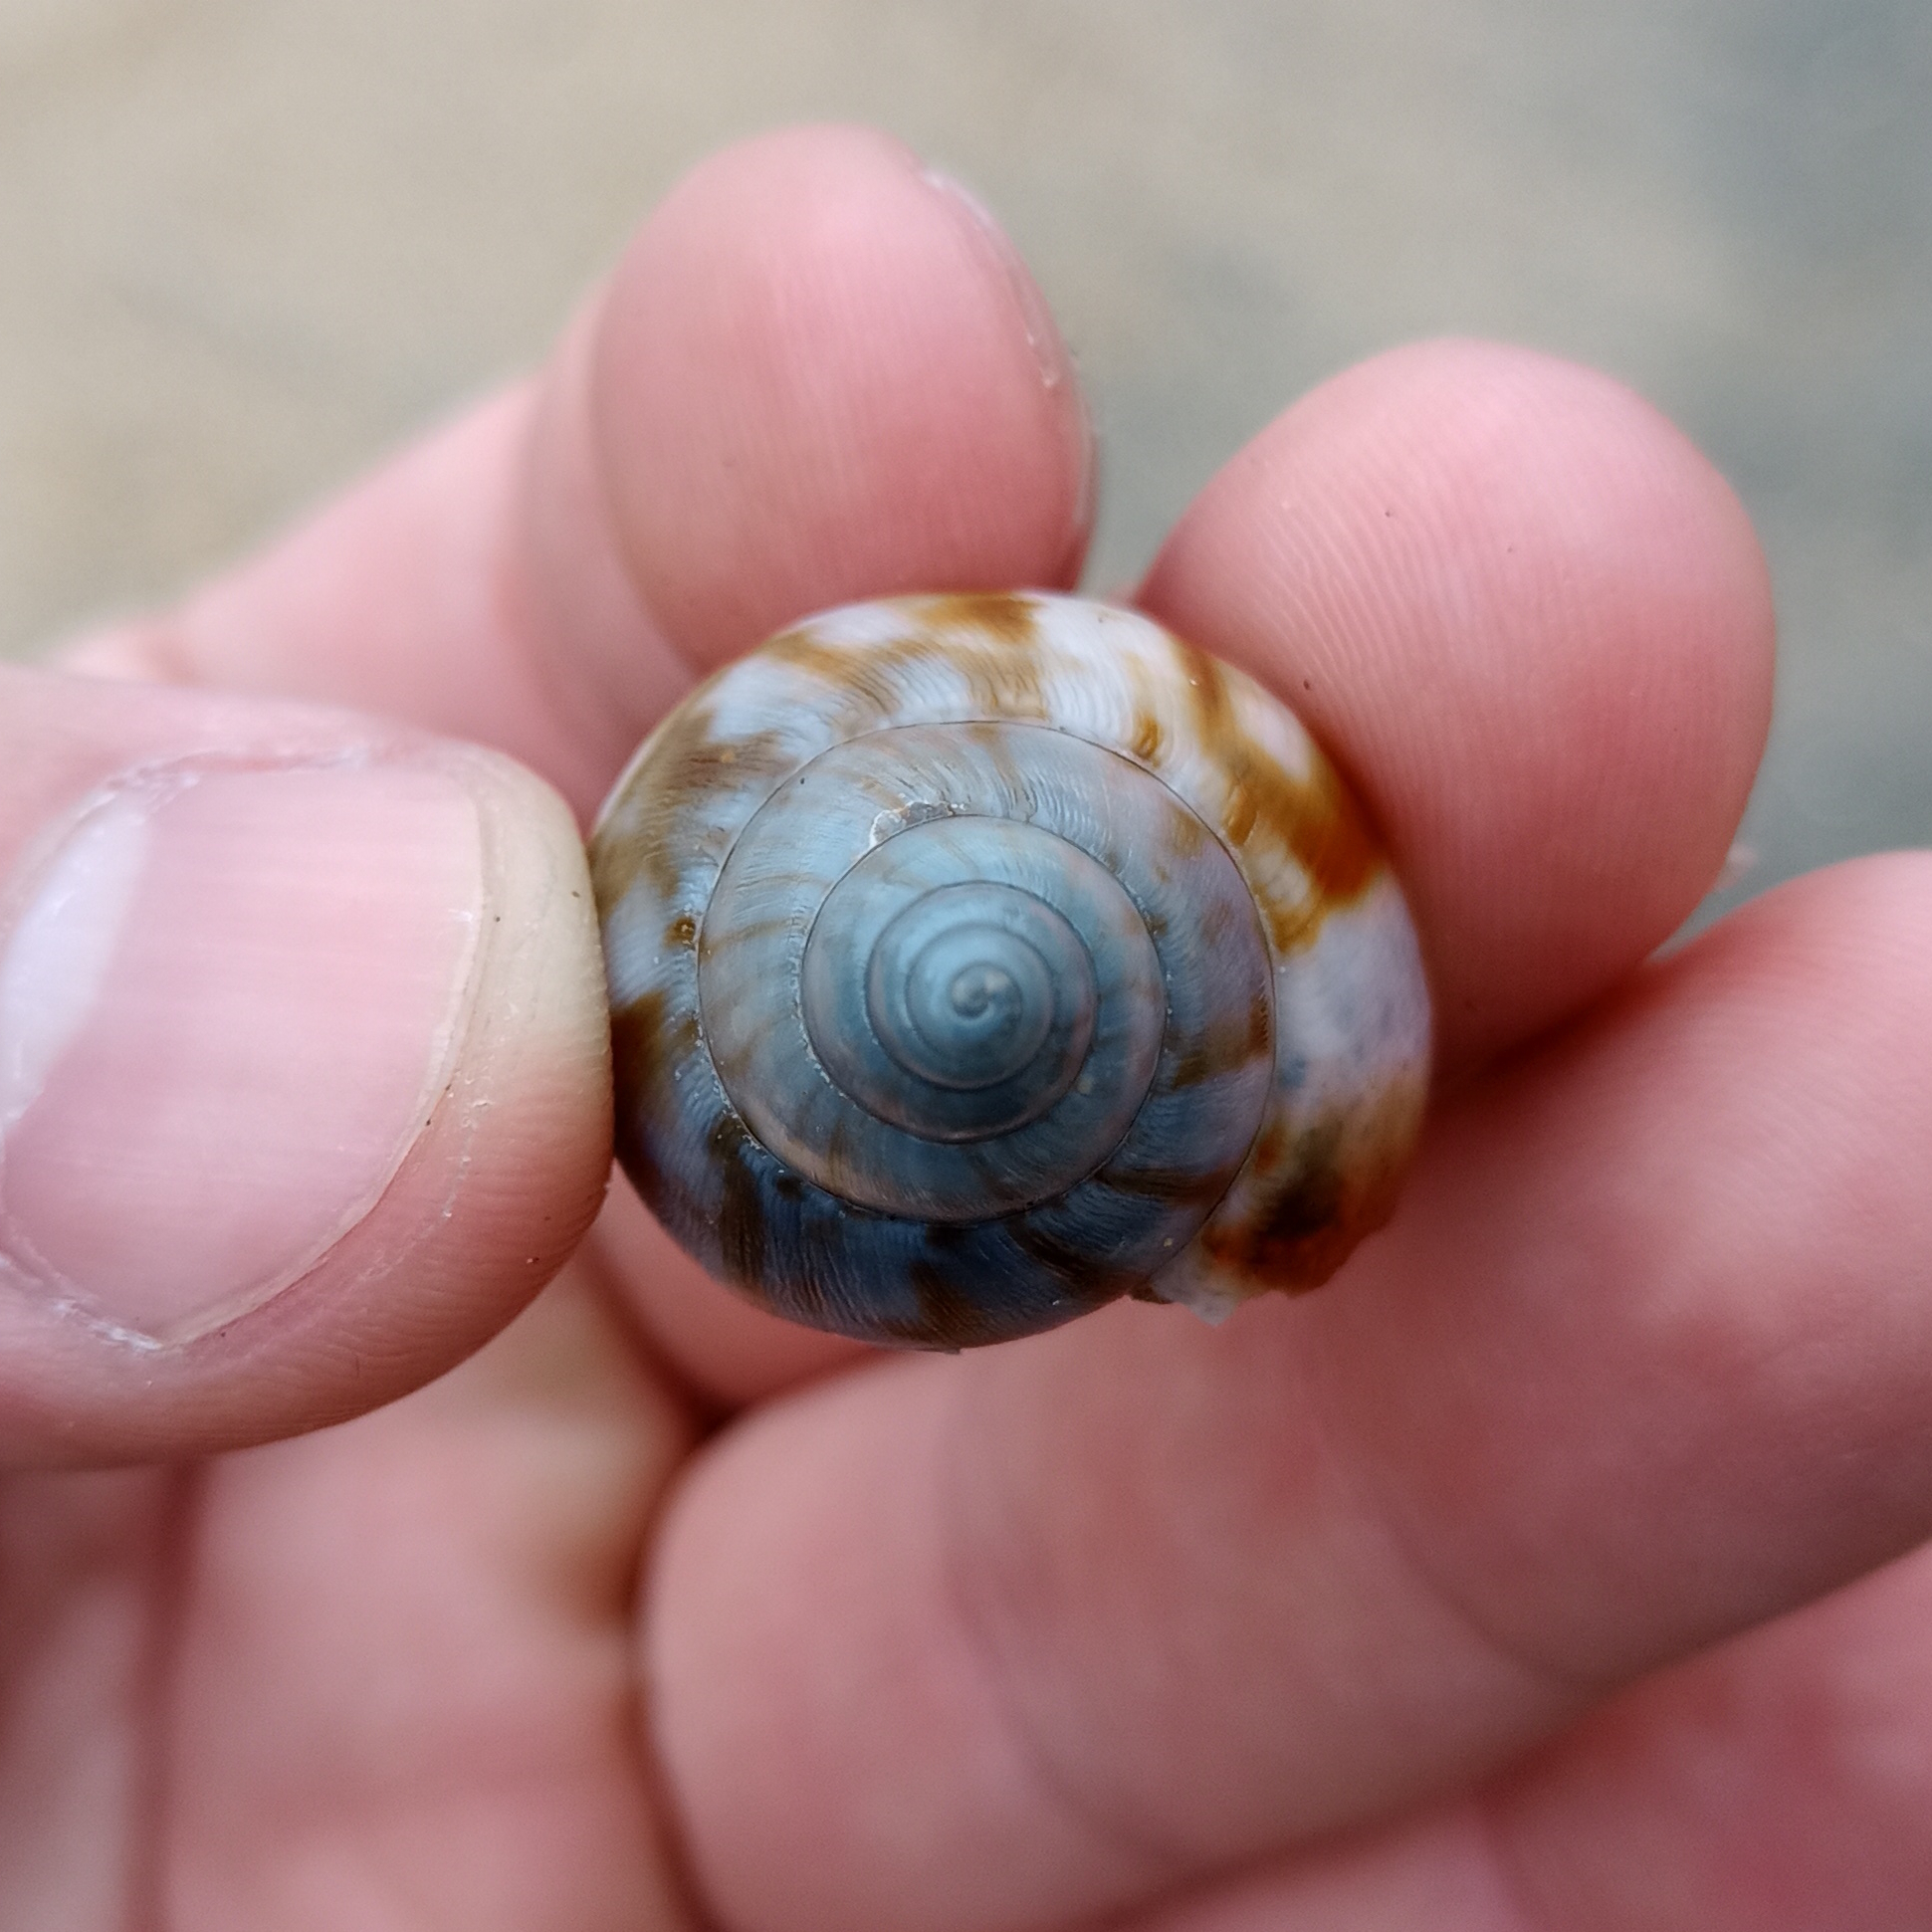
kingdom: Animalia
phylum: Mollusca
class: Gastropoda
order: Stylommatophora
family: Achatinidae
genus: Lissachatina
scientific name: Lissachatina fulica
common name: Giant african snail
